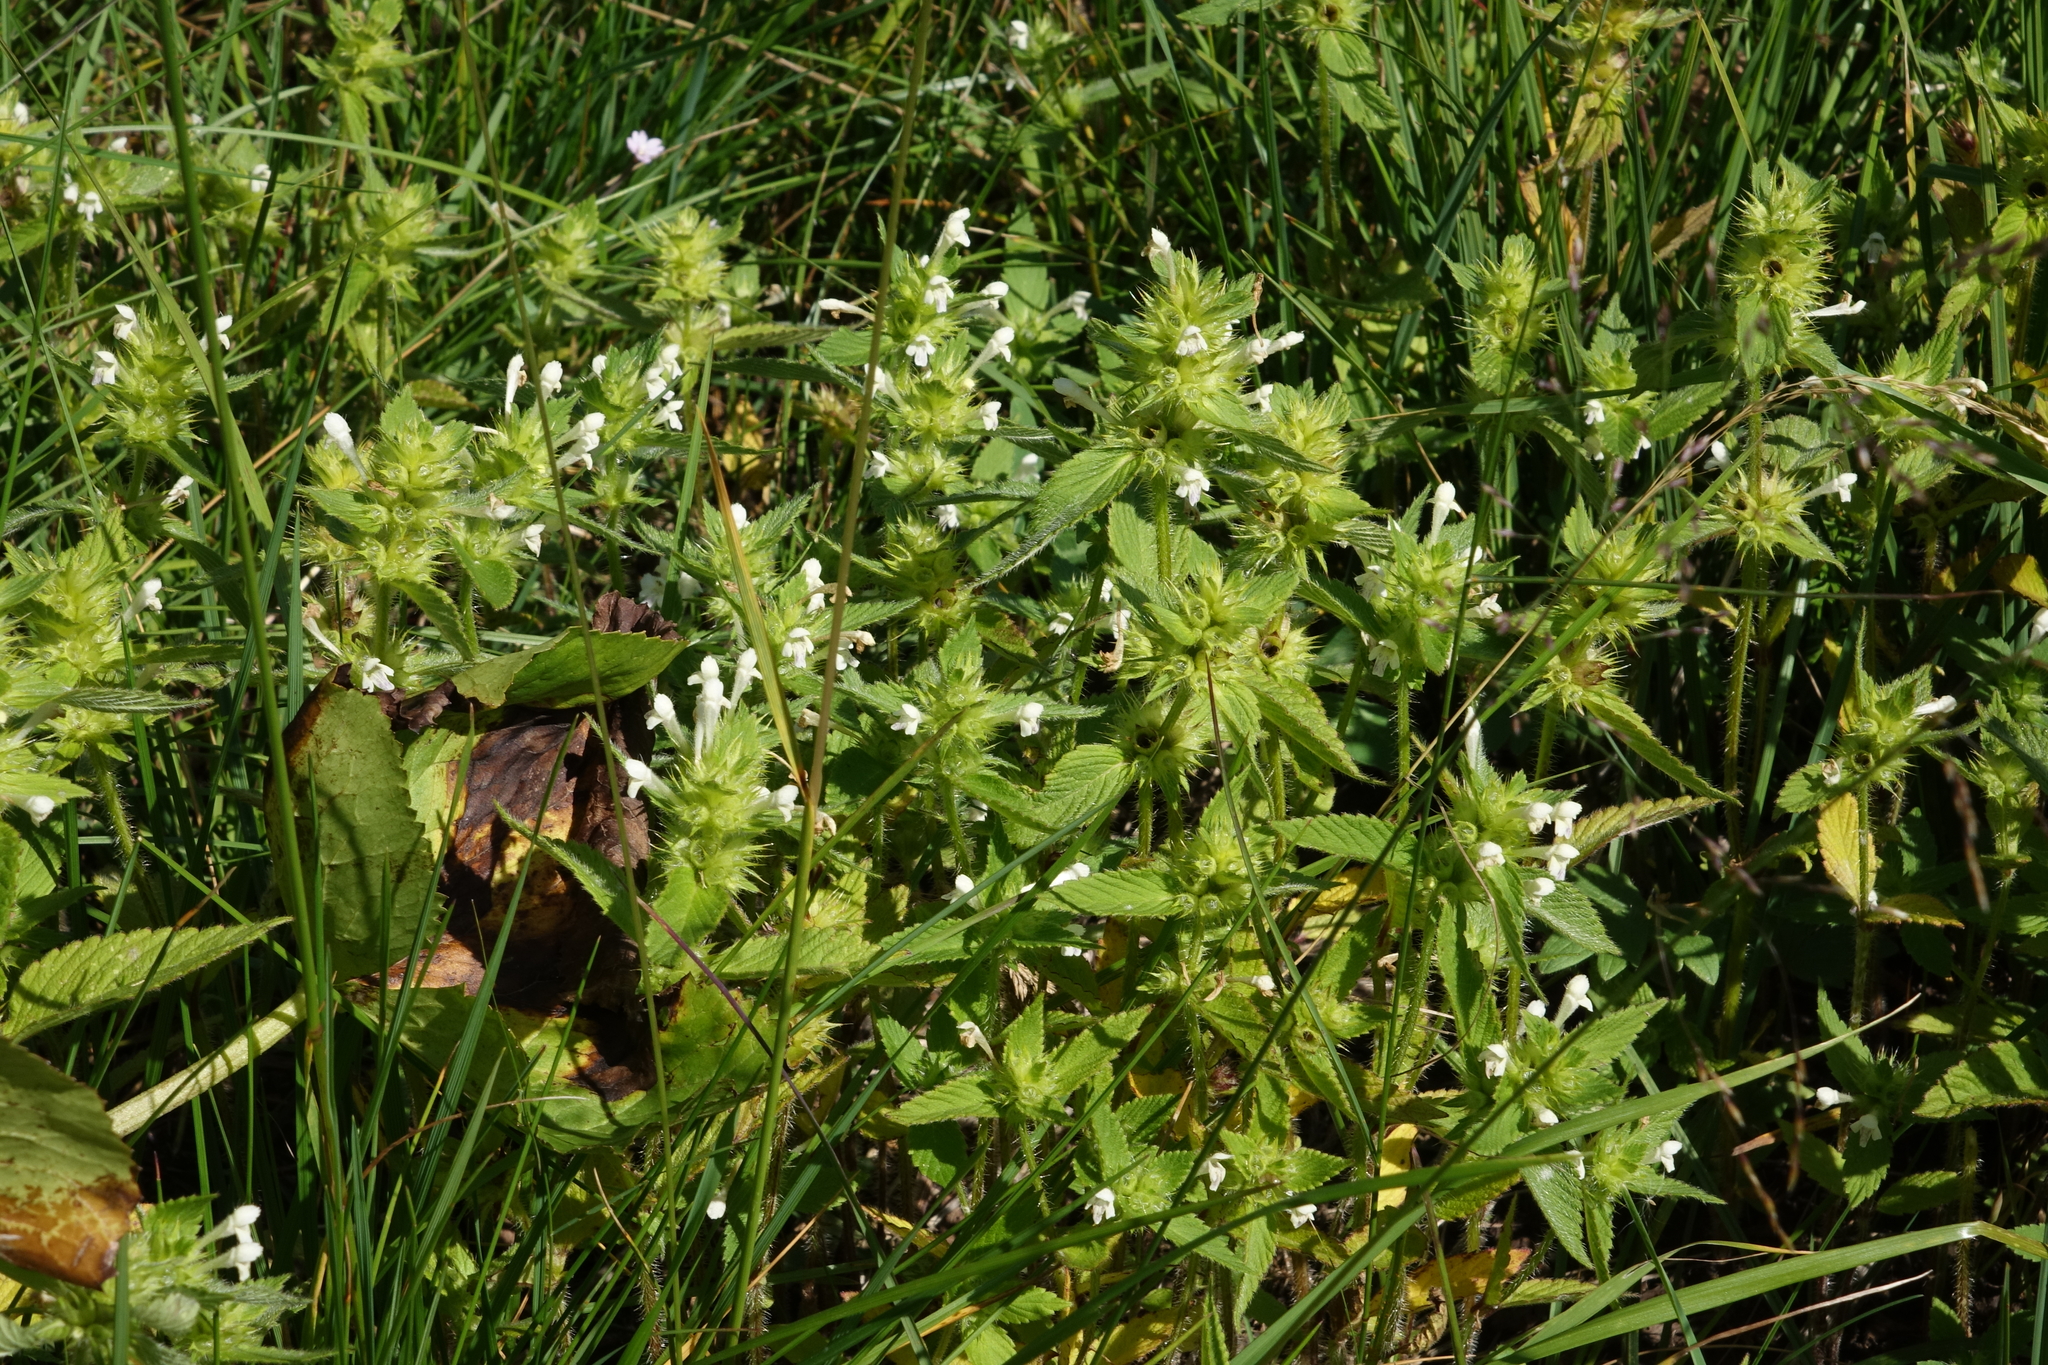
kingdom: Plantae
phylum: Tracheophyta
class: Magnoliopsida
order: Lamiales
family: Lamiaceae
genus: Galeopsis
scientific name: Galeopsis bifida
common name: Bifid hemp-nettle
